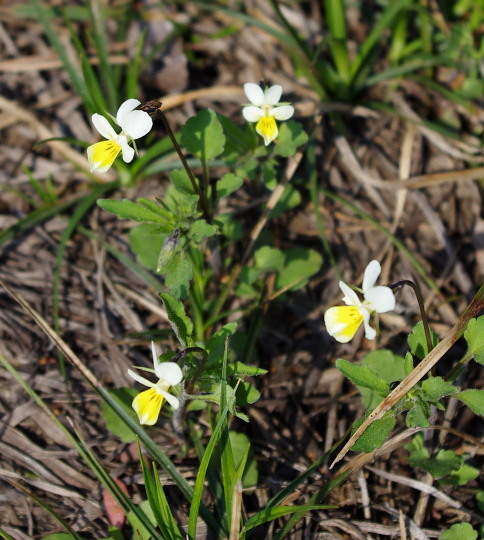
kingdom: Plantae
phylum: Tracheophyta
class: Magnoliopsida
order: Malpighiales
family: Violaceae
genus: Viola
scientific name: Viola contempta
